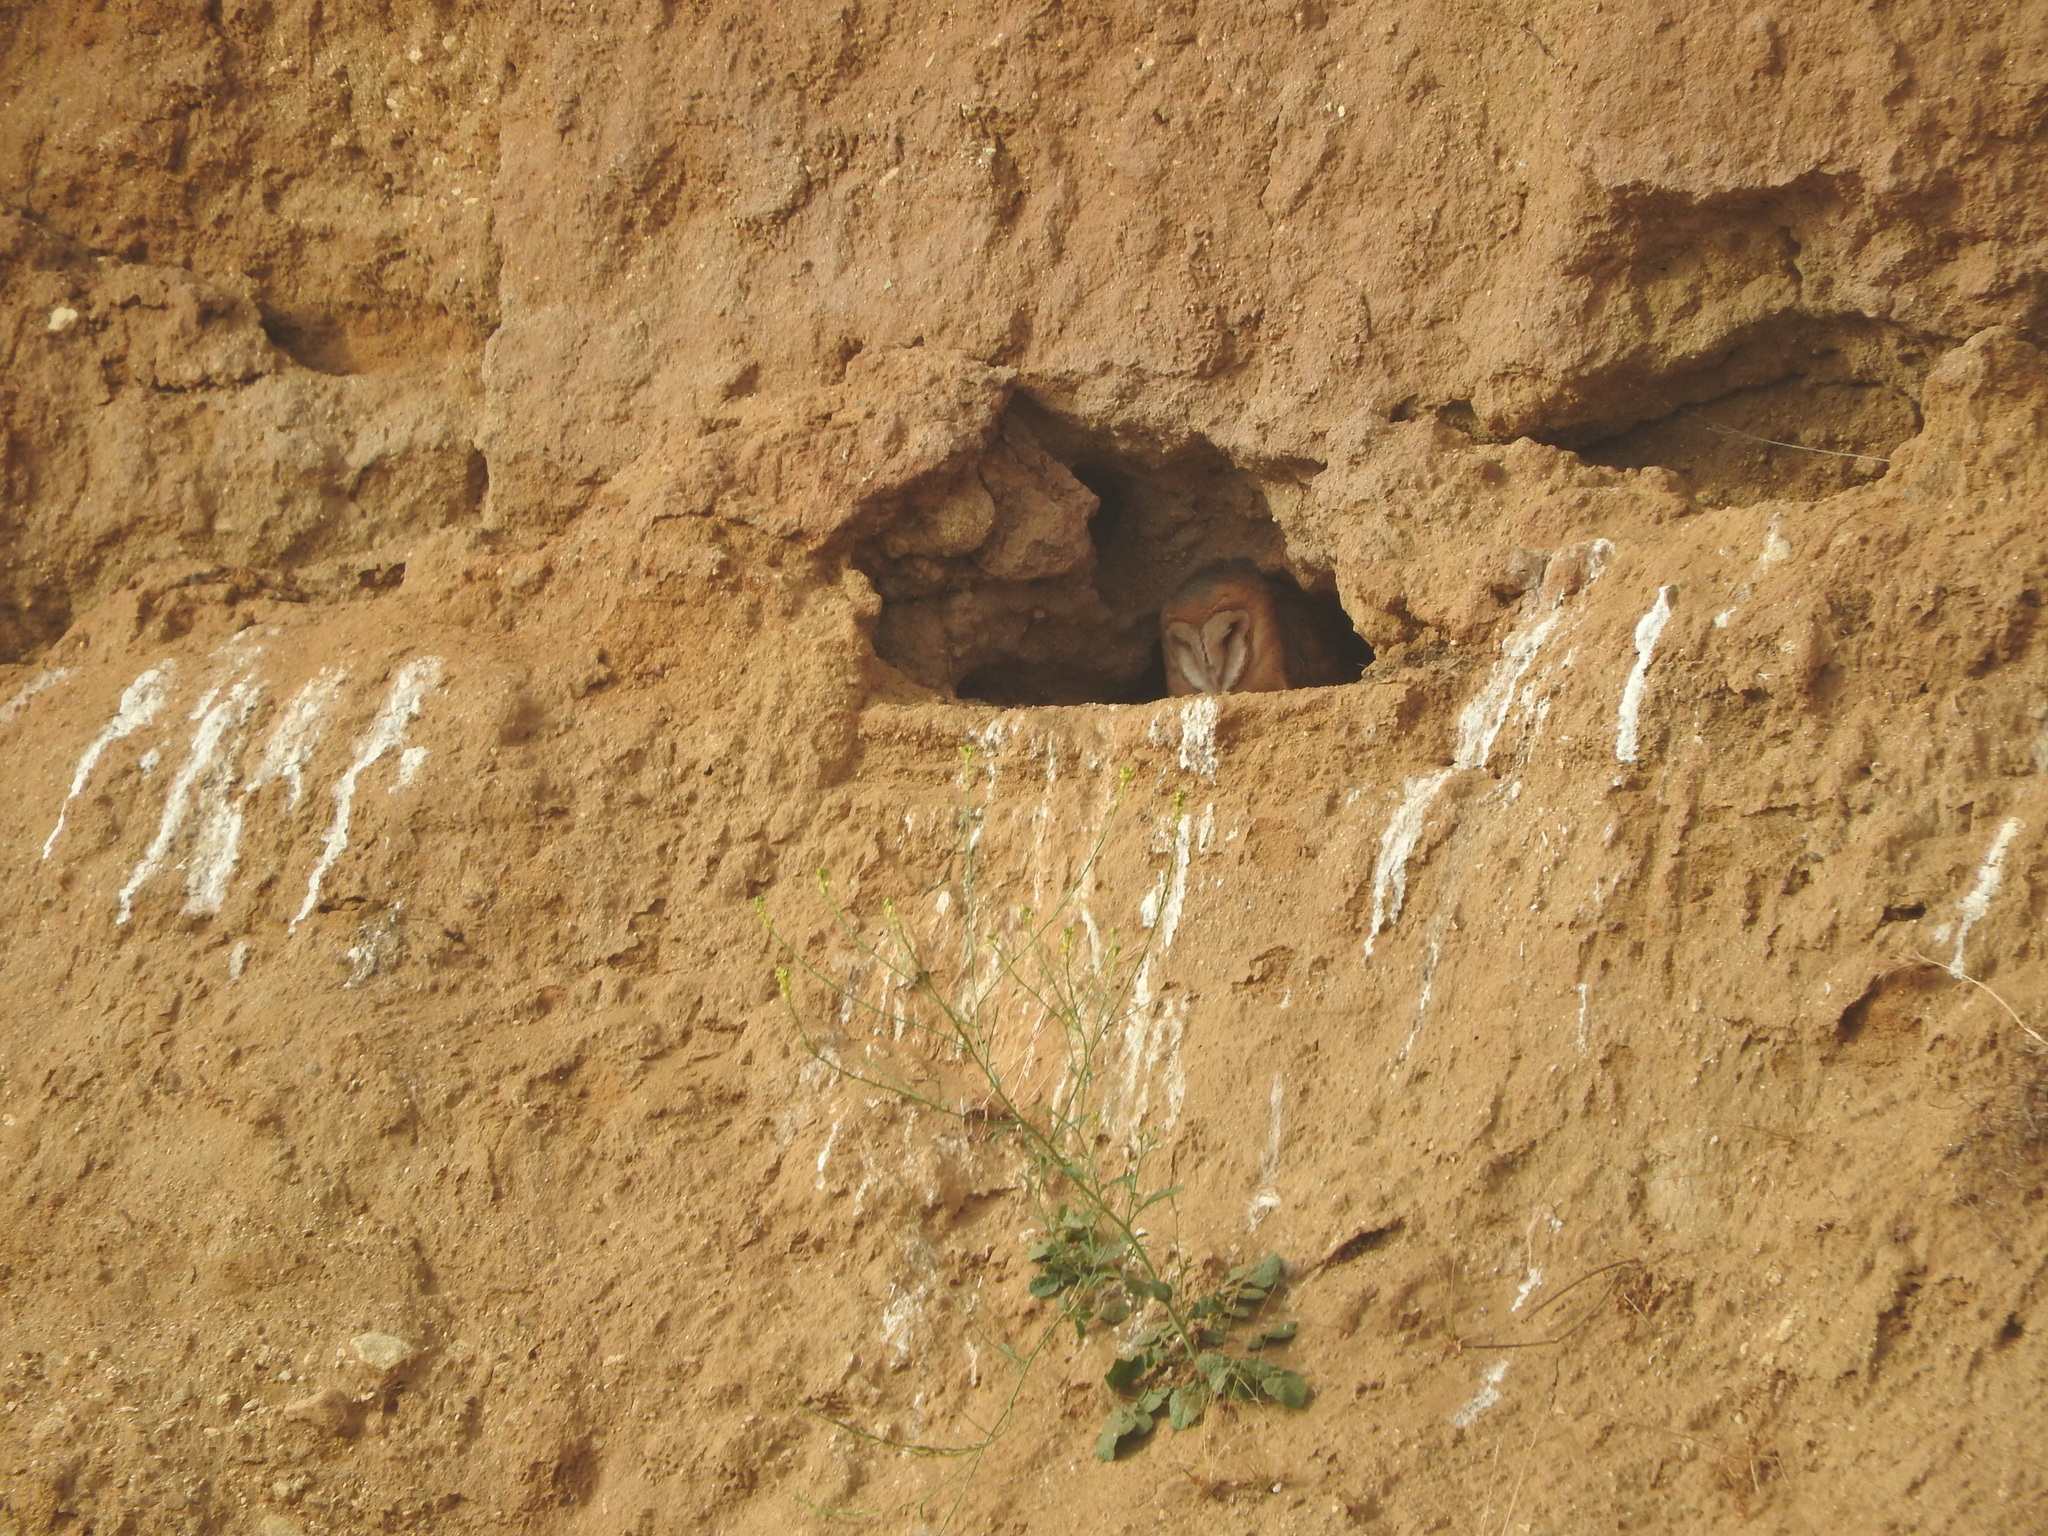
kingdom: Animalia
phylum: Chordata
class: Aves
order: Strigiformes
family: Tytonidae
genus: Tyto
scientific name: Tyto alba
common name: Barn owl
